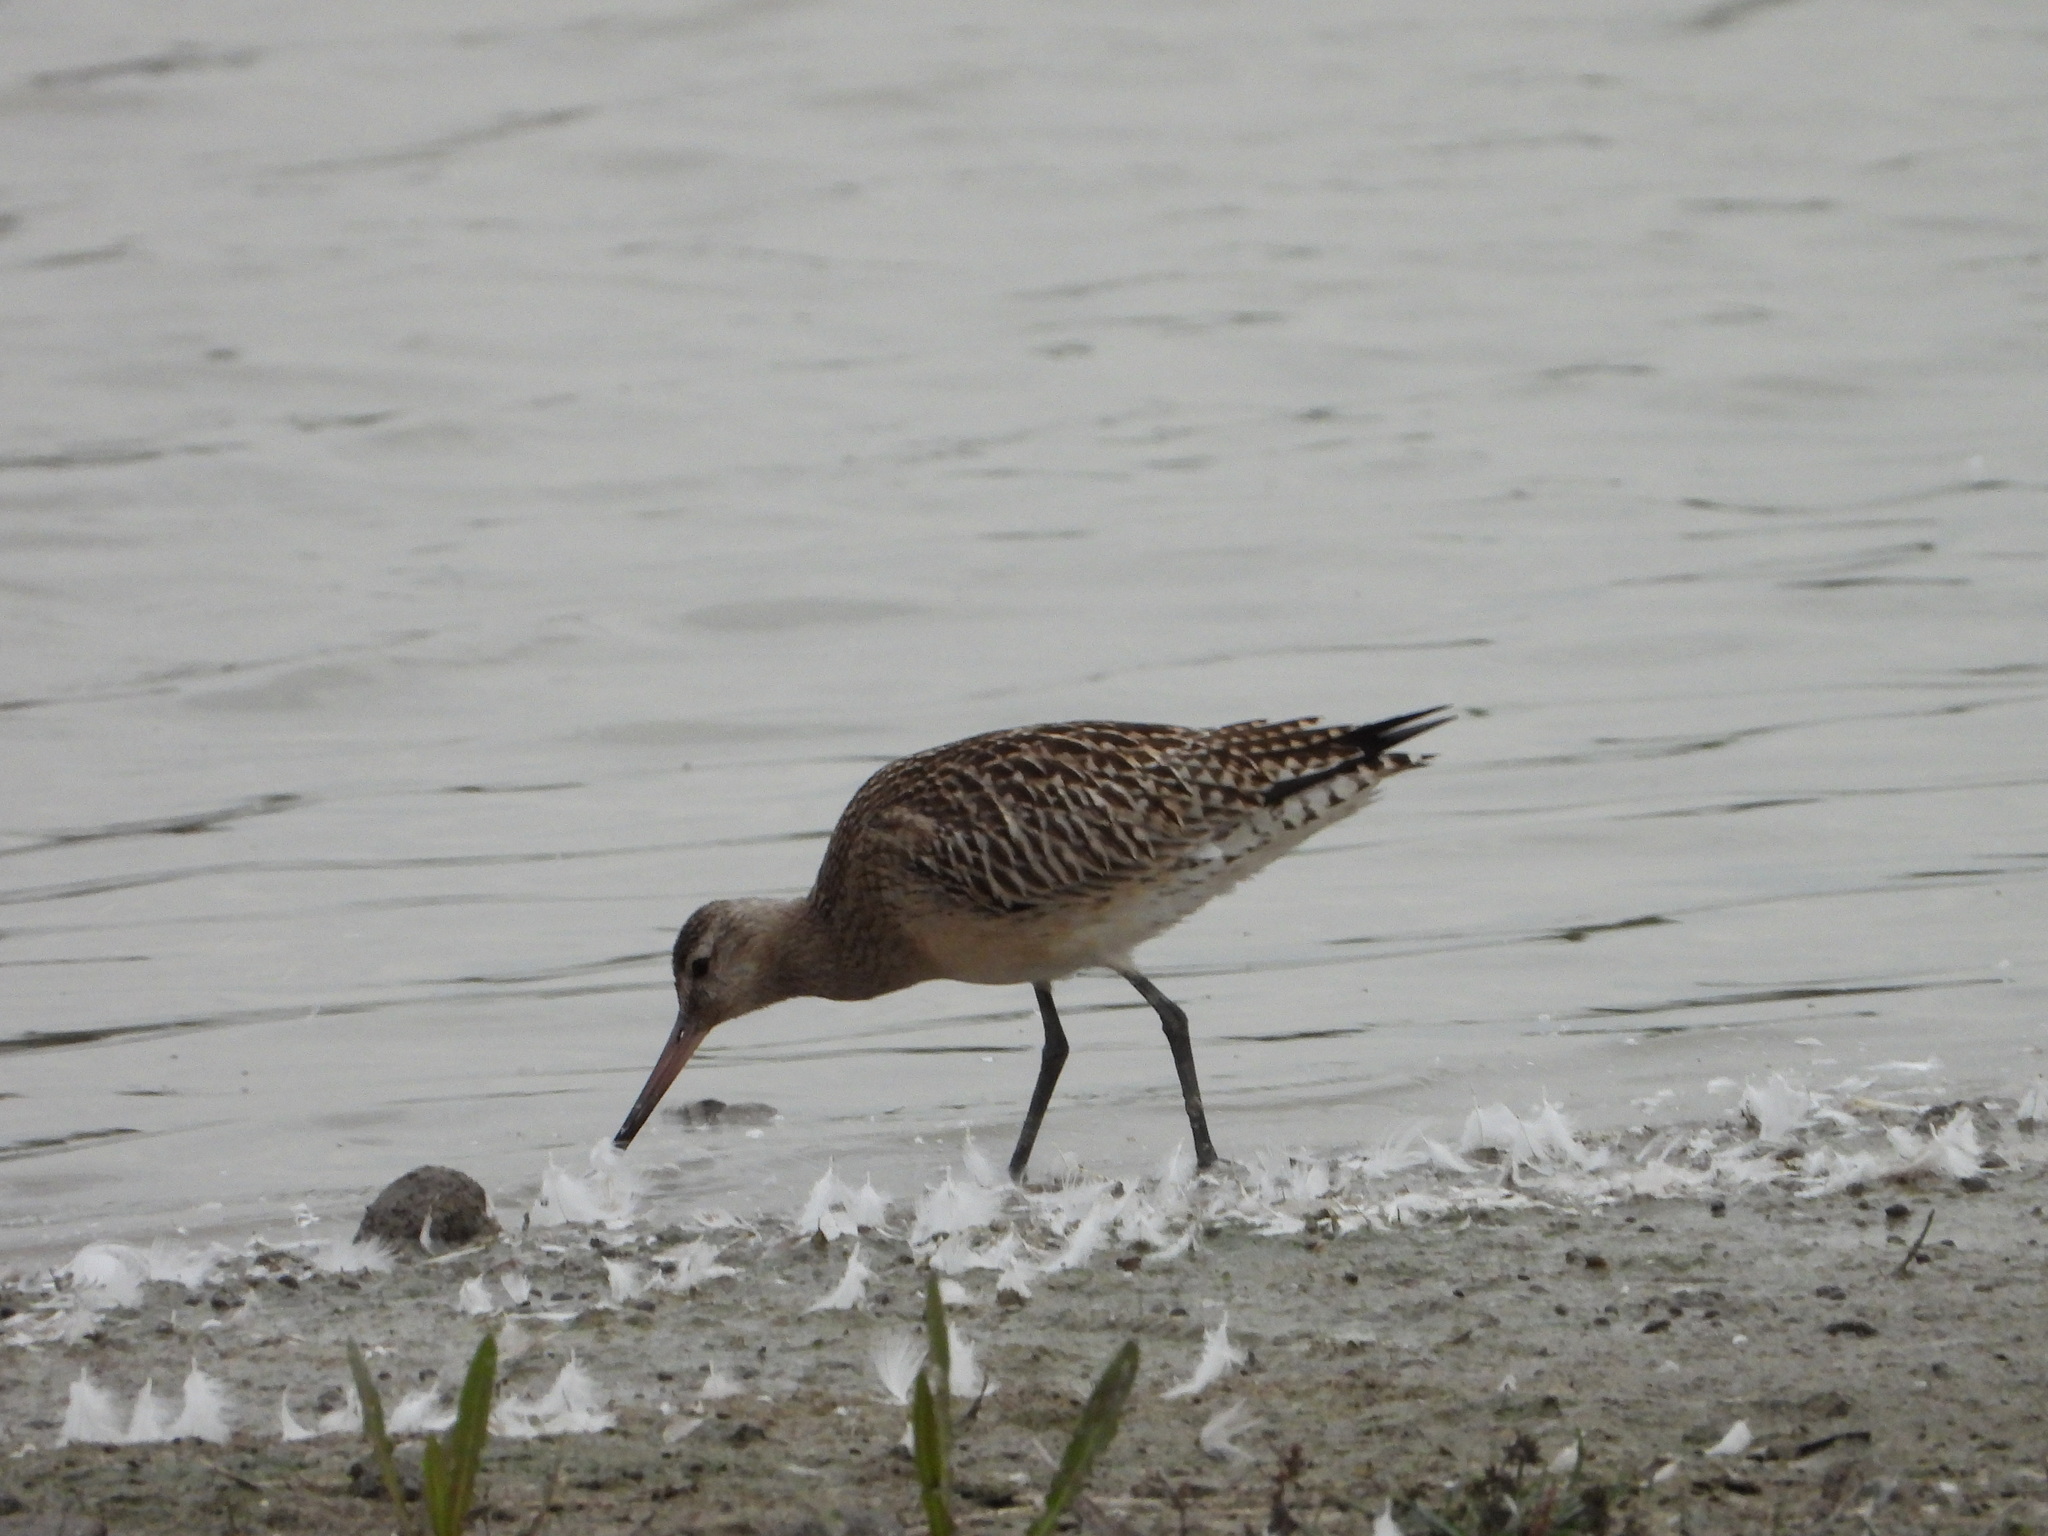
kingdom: Animalia
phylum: Chordata
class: Aves
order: Charadriiformes
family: Scolopacidae
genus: Limosa
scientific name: Limosa lapponica
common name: Bar-tailed godwit
